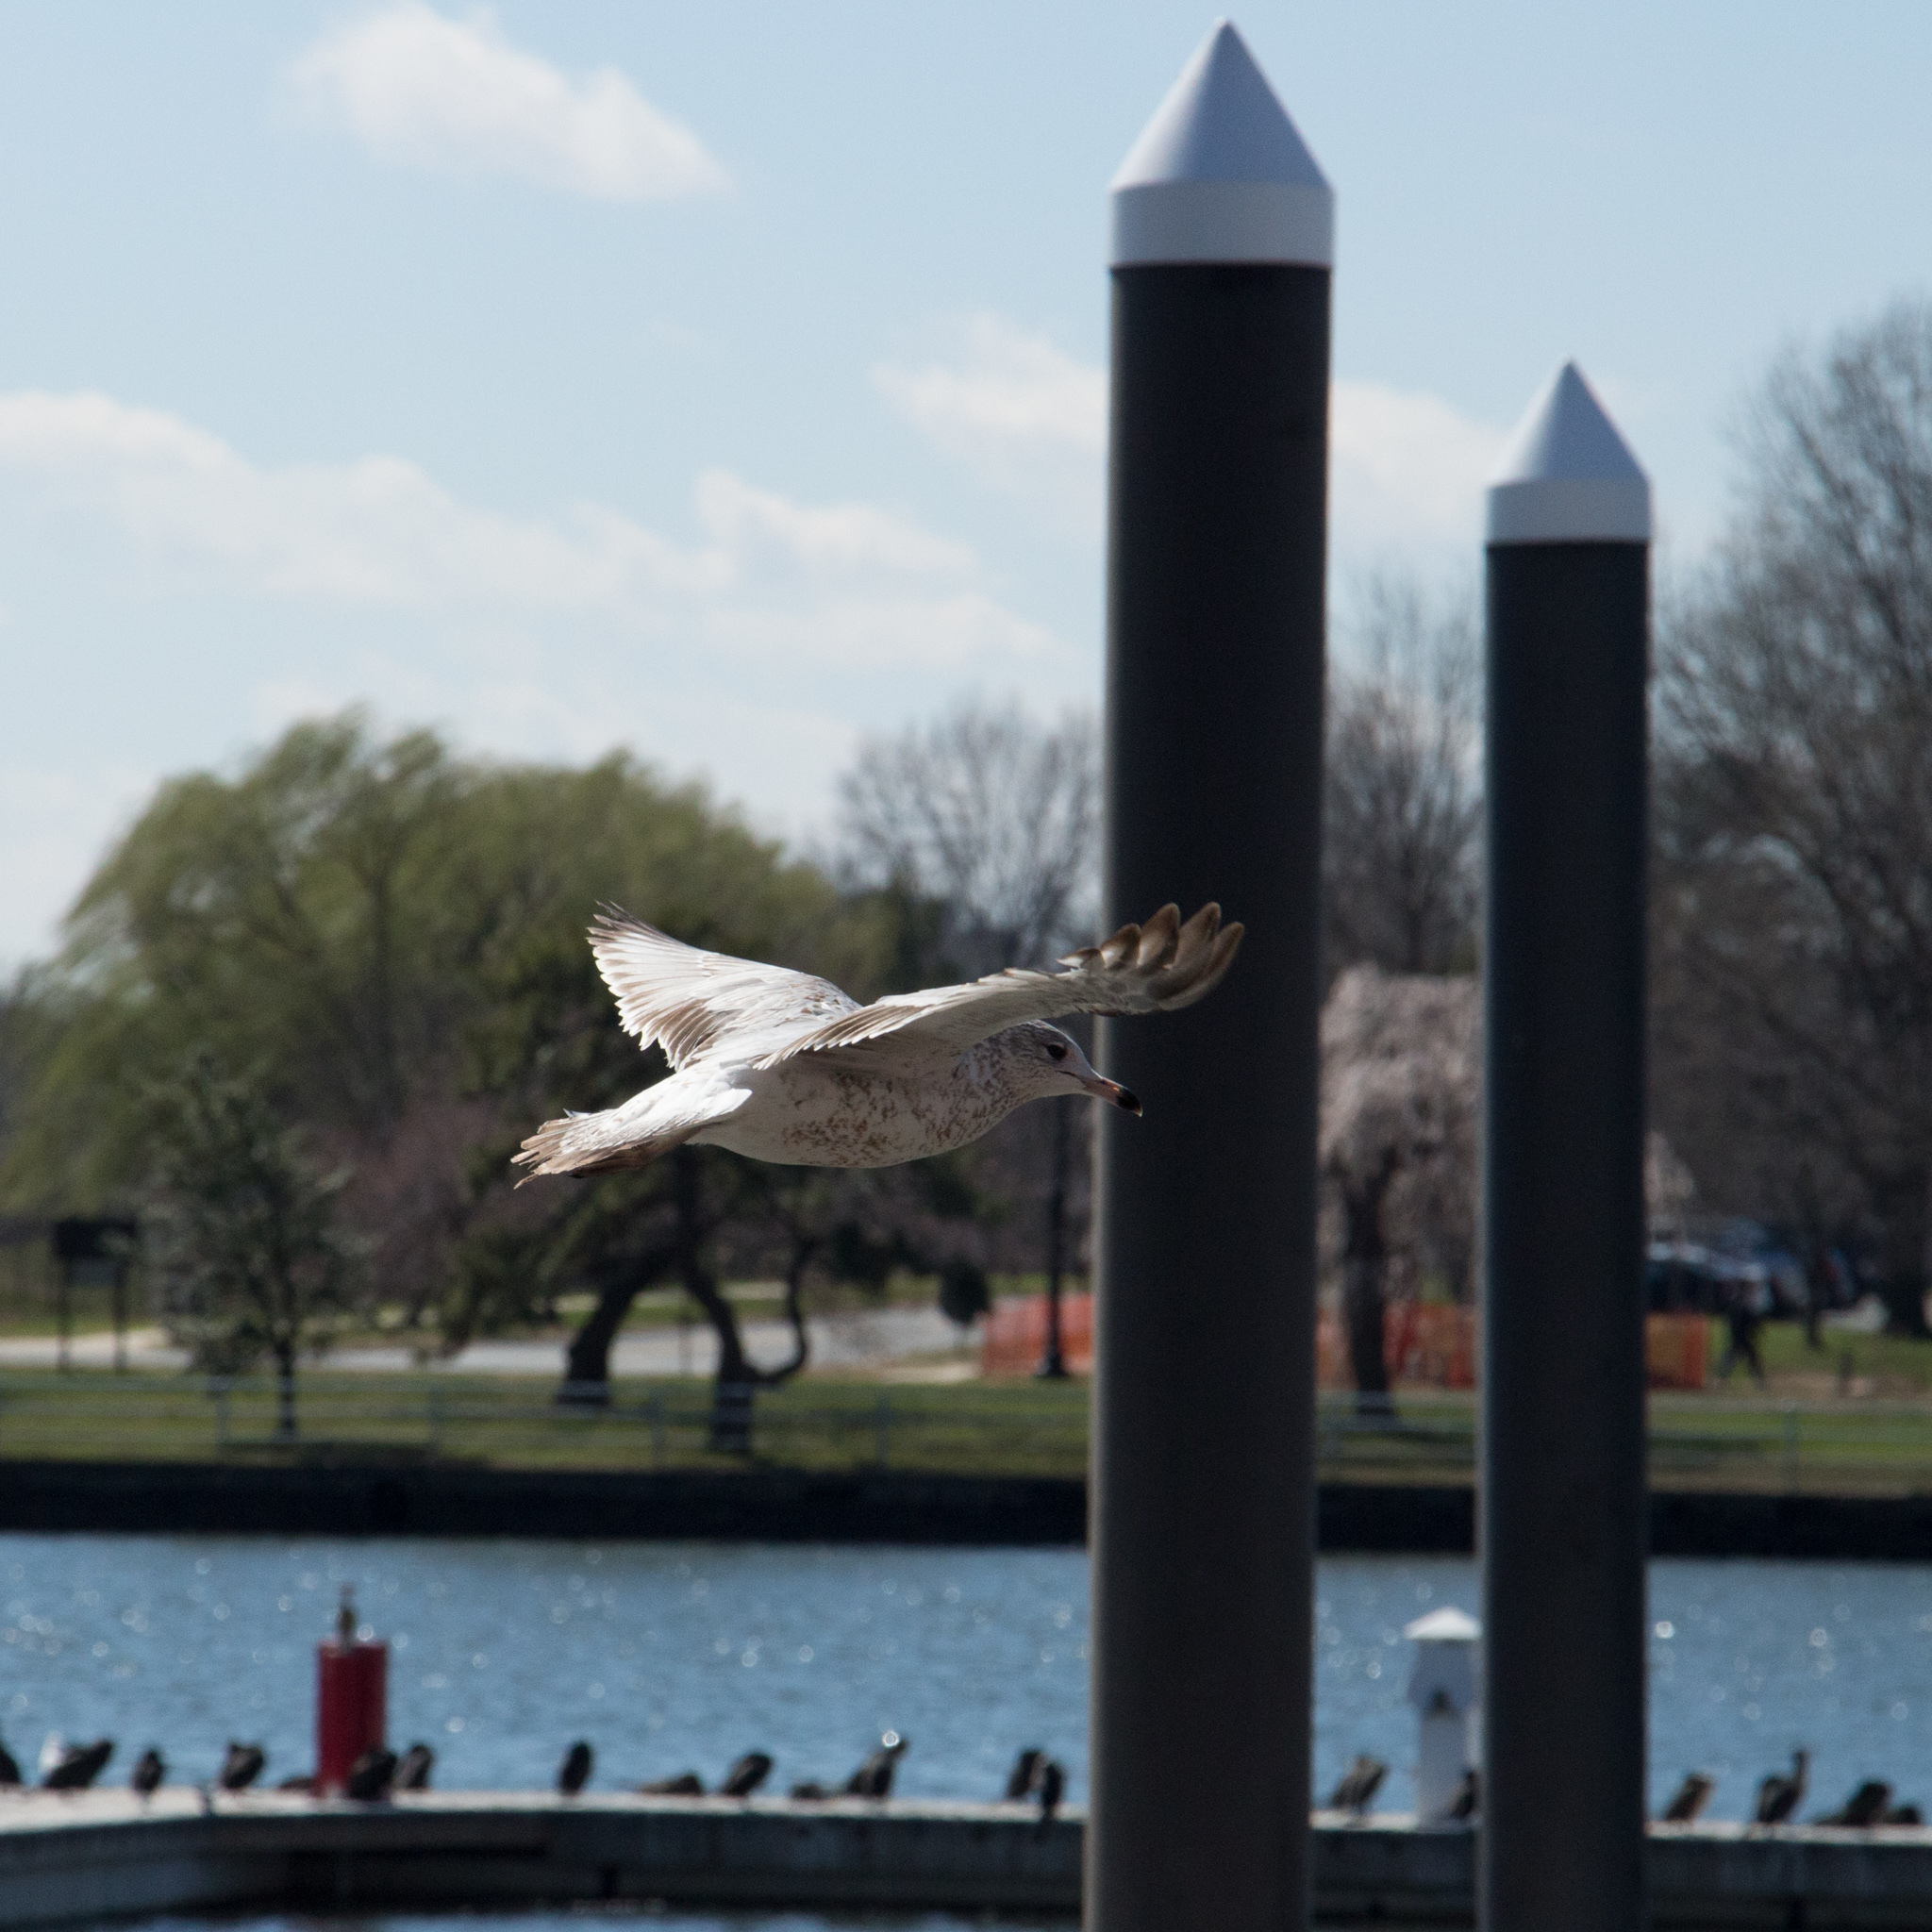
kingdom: Animalia
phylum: Chordata
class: Aves
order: Charadriiformes
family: Laridae
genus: Larus
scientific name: Larus delawarensis
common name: Ring-billed gull
